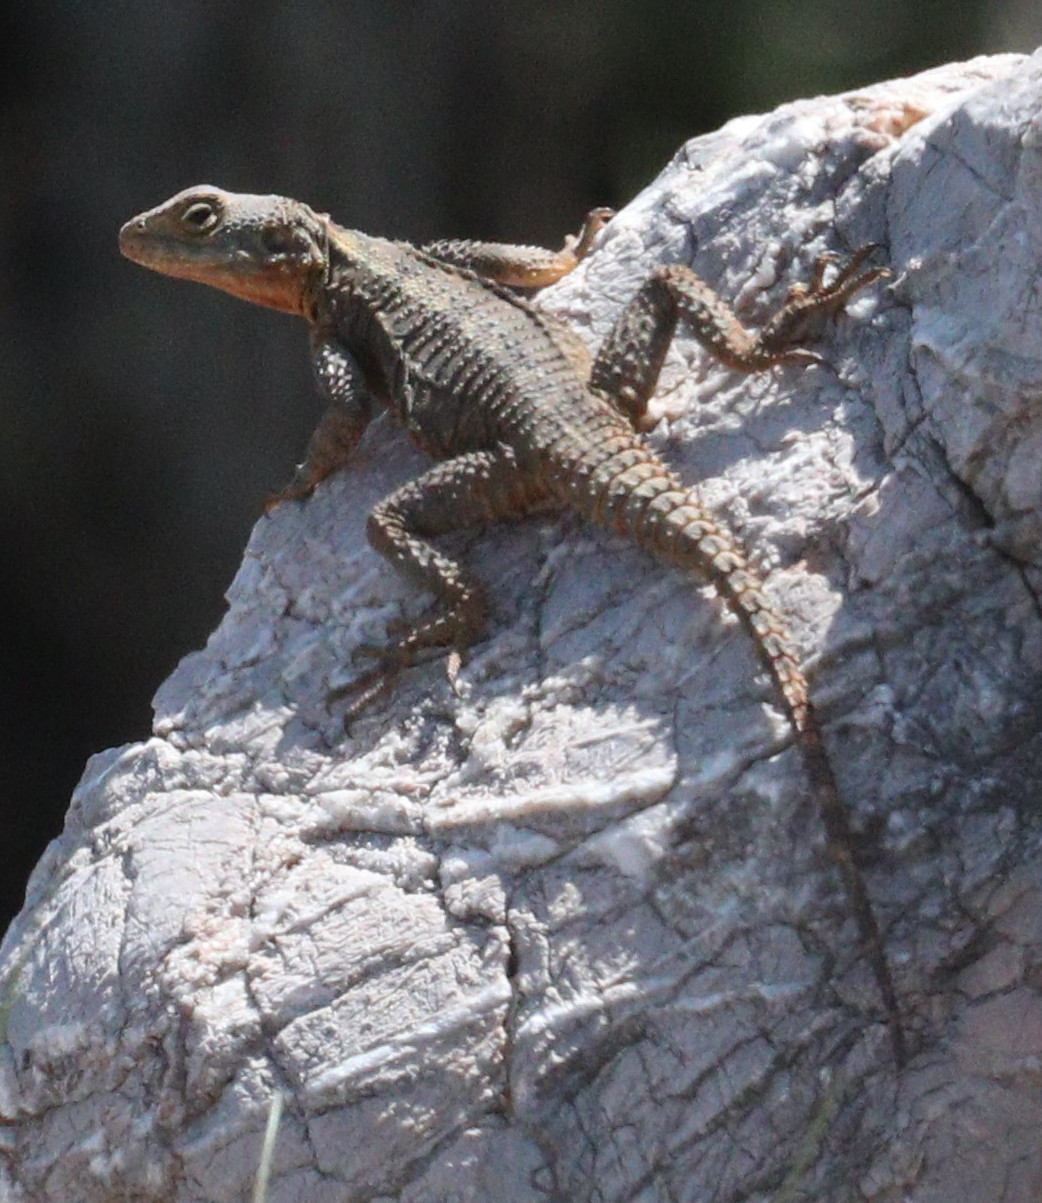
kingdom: Animalia
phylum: Chordata
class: Squamata
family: Agamidae
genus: Stellagama
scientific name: Stellagama stellio
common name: Starred agama
